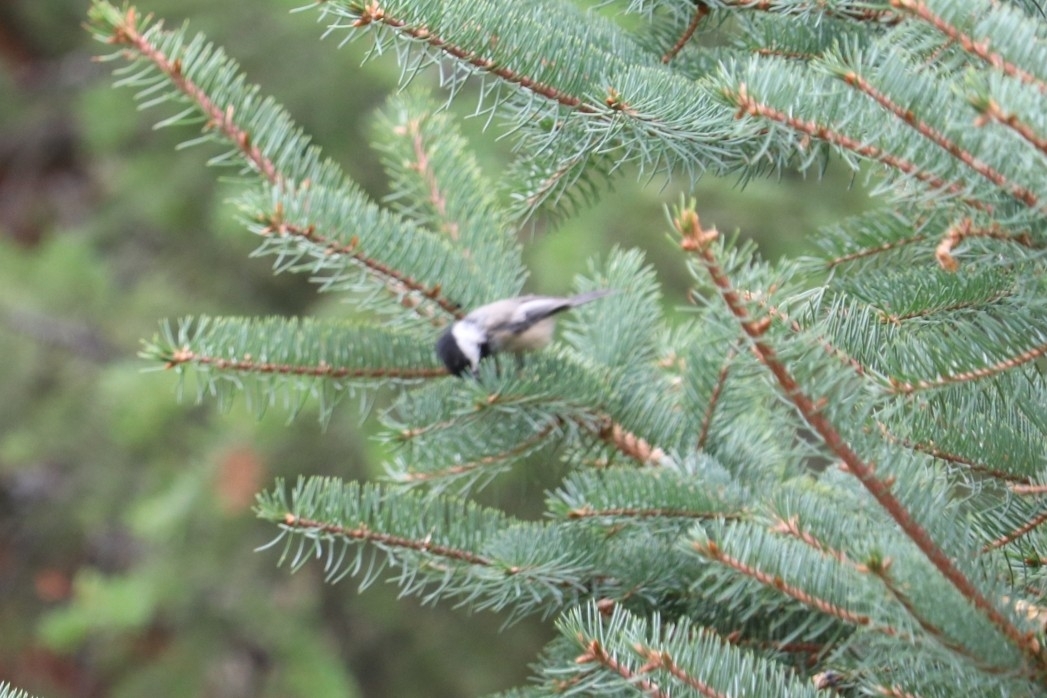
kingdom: Animalia
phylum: Chordata
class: Aves
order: Passeriformes
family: Paridae
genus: Poecile
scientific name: Poecile atricapillus
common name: Black-capped chickadee
